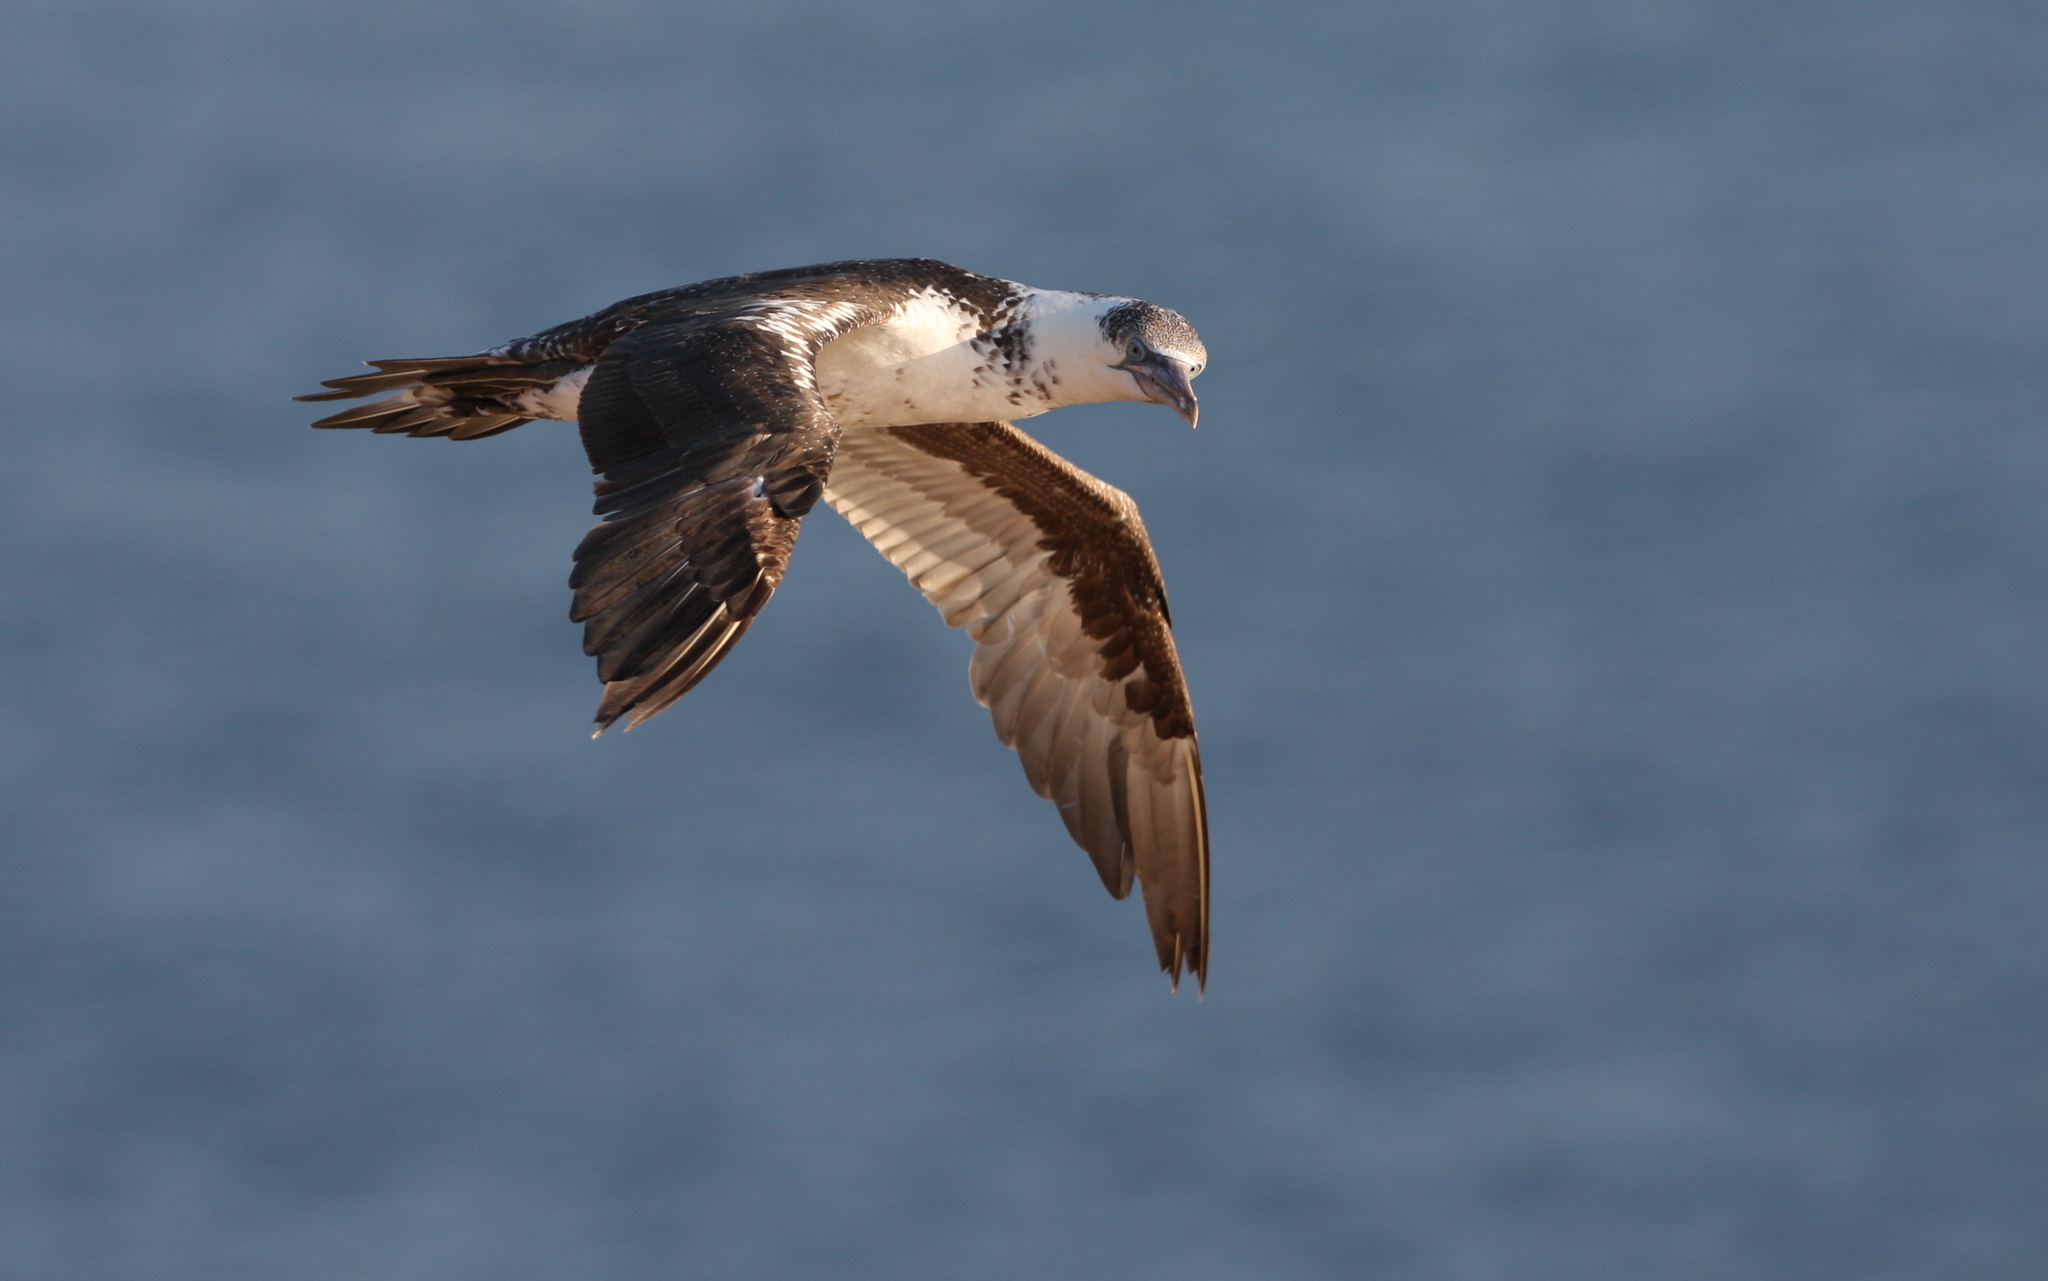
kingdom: Animalia
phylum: Chordata
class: Aves
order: Suliformes
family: Sulidae
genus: Morus
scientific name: Morus bassanus
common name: Northern gannet
